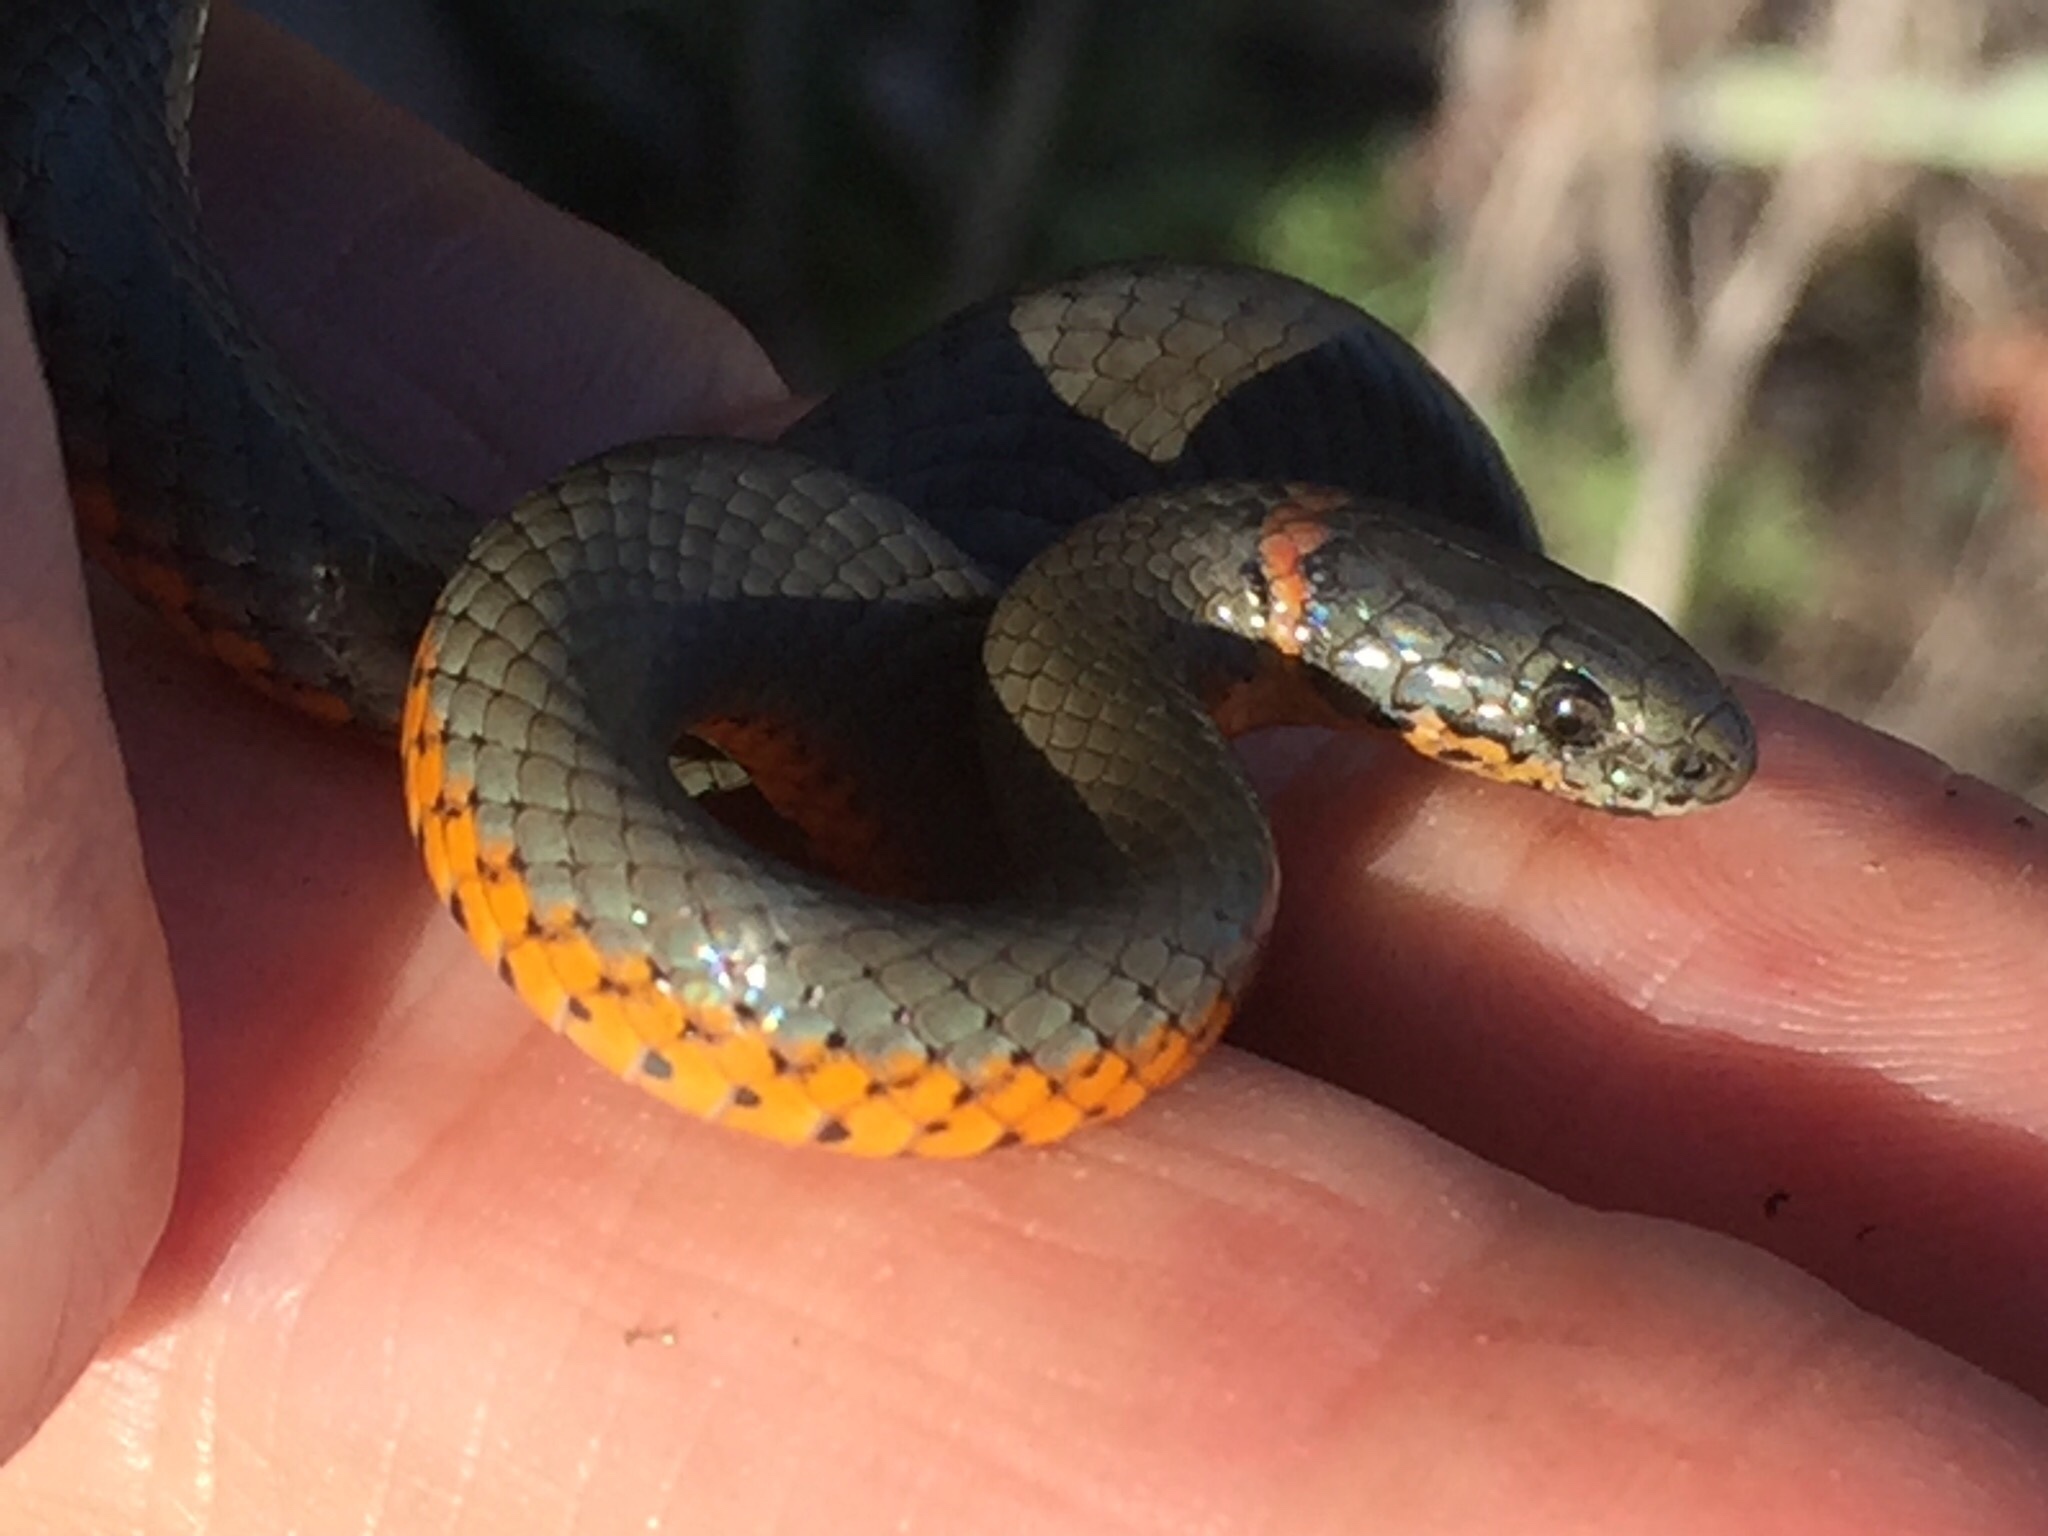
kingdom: Animalia
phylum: Chordata
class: Squamata
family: Colubridae
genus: Diadophis
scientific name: Diadophis punctatus
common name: Ringneck snake
